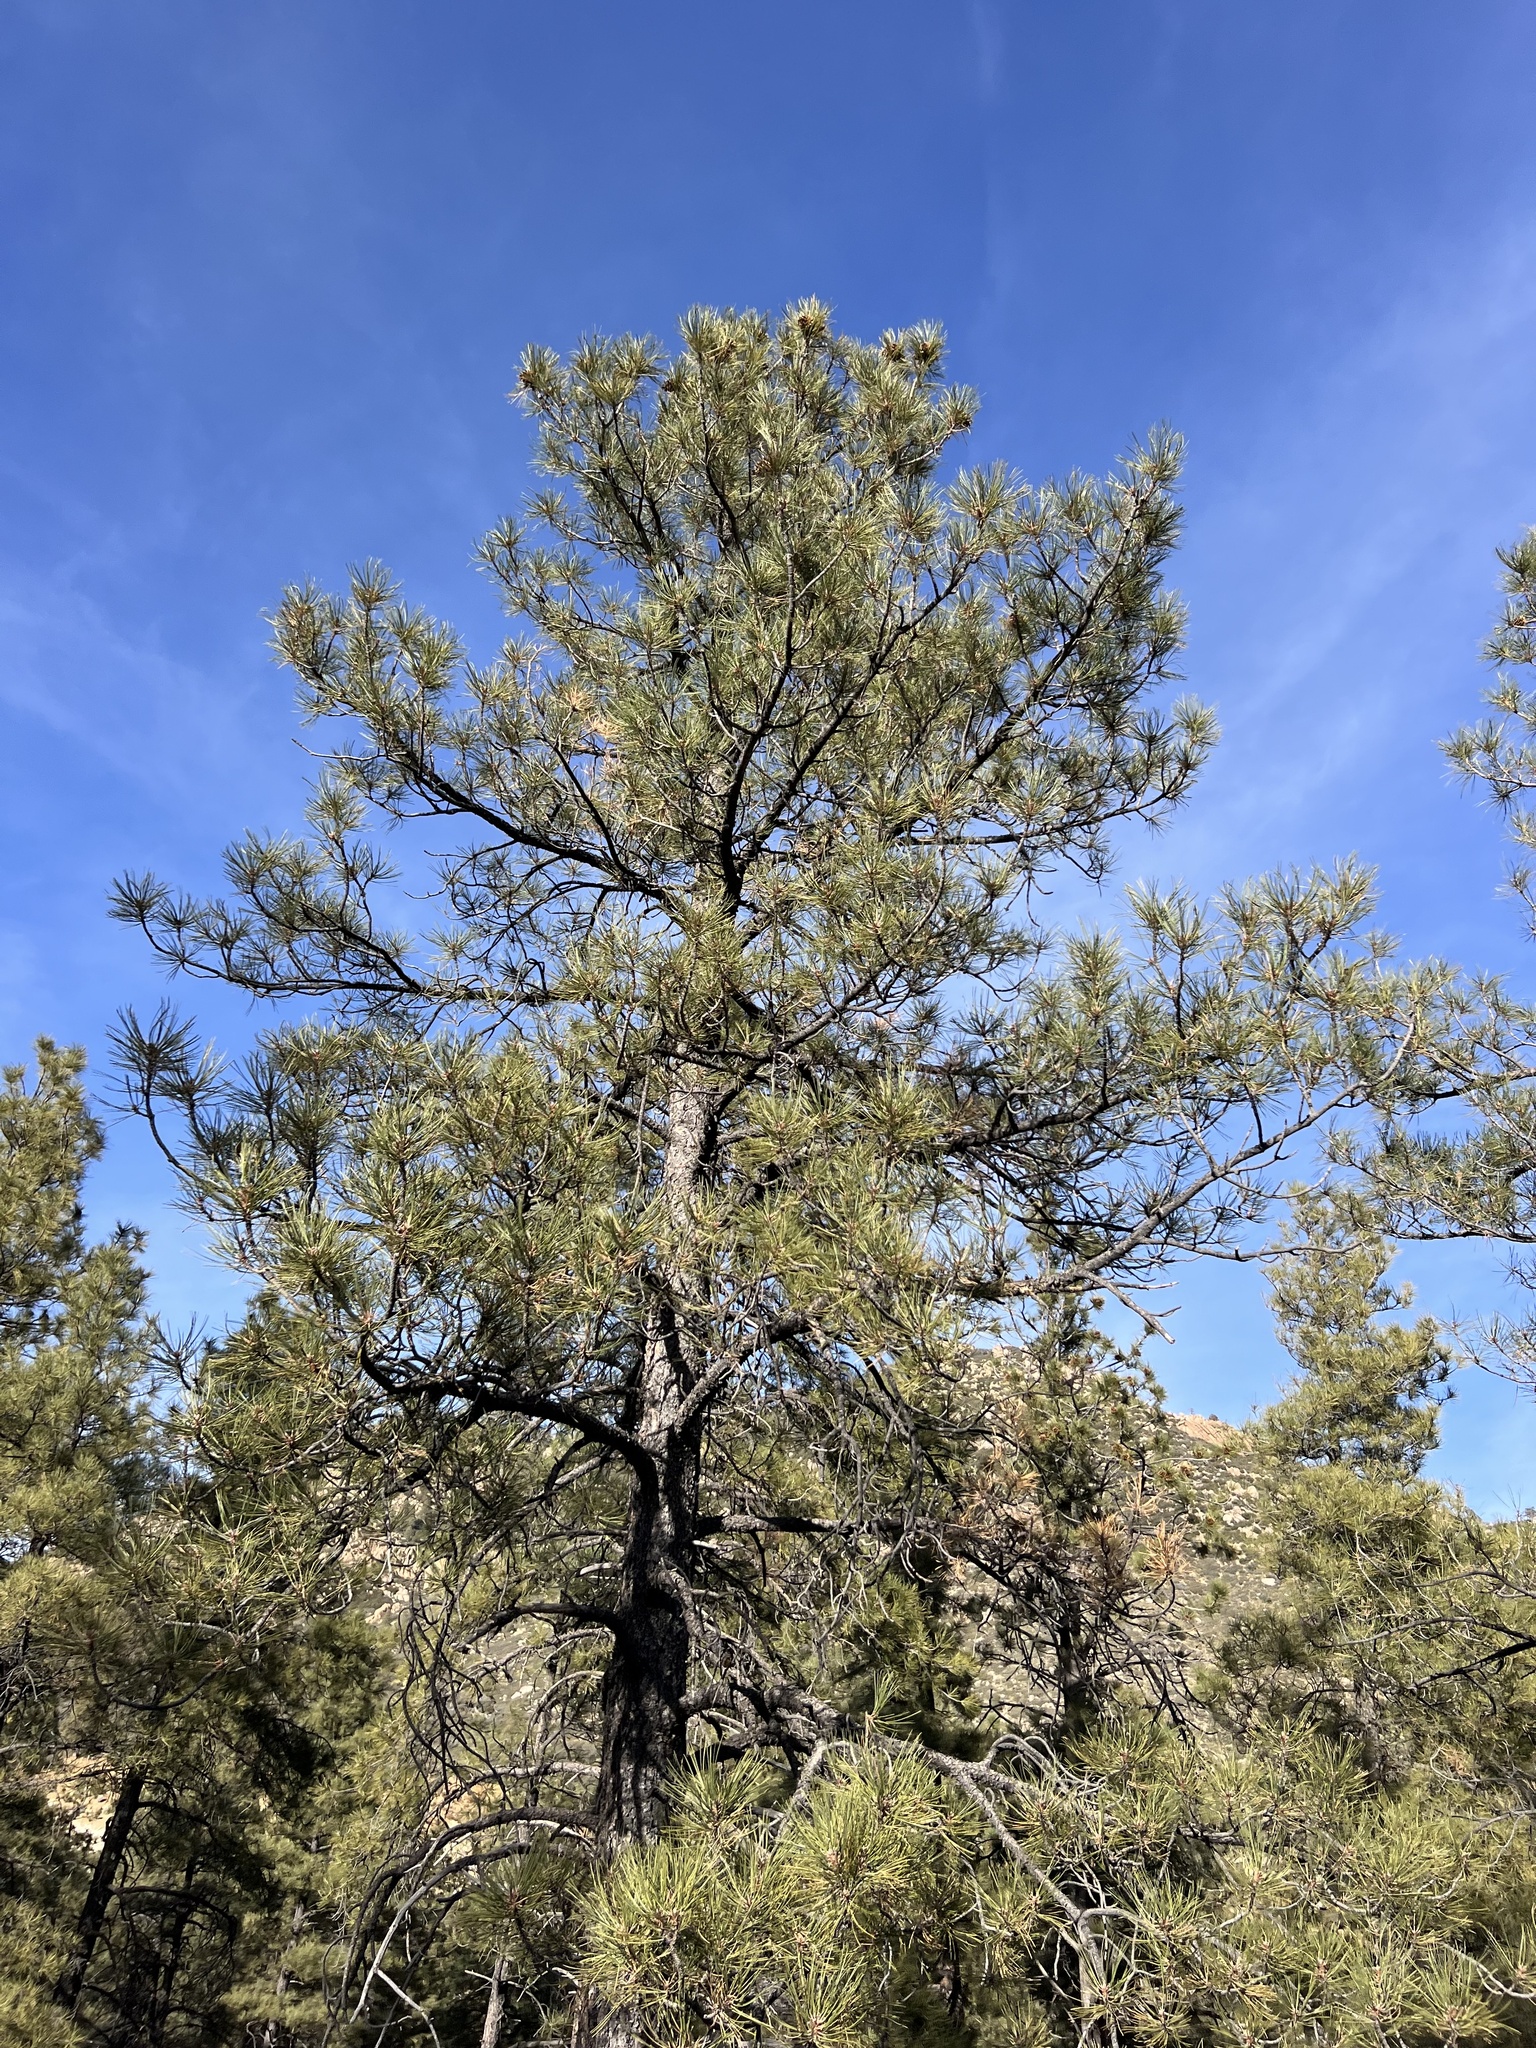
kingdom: Plantae
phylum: Tracheophyta
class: Pinopsida
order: Pinales
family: Pinaceae
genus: Pinus
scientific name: Pinus ponderosa
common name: Western yellow-pine
